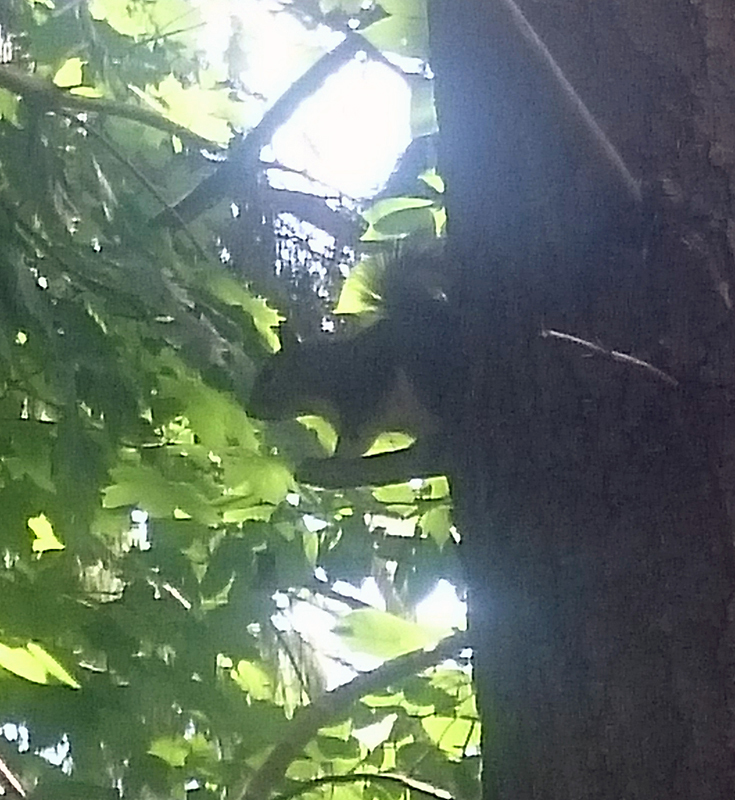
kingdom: Animalia
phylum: Chordata
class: Mammalia
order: Rodentia
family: Sciuridae
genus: Sciurus
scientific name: Sciurus carolinensis
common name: Eastern gray squirrel
